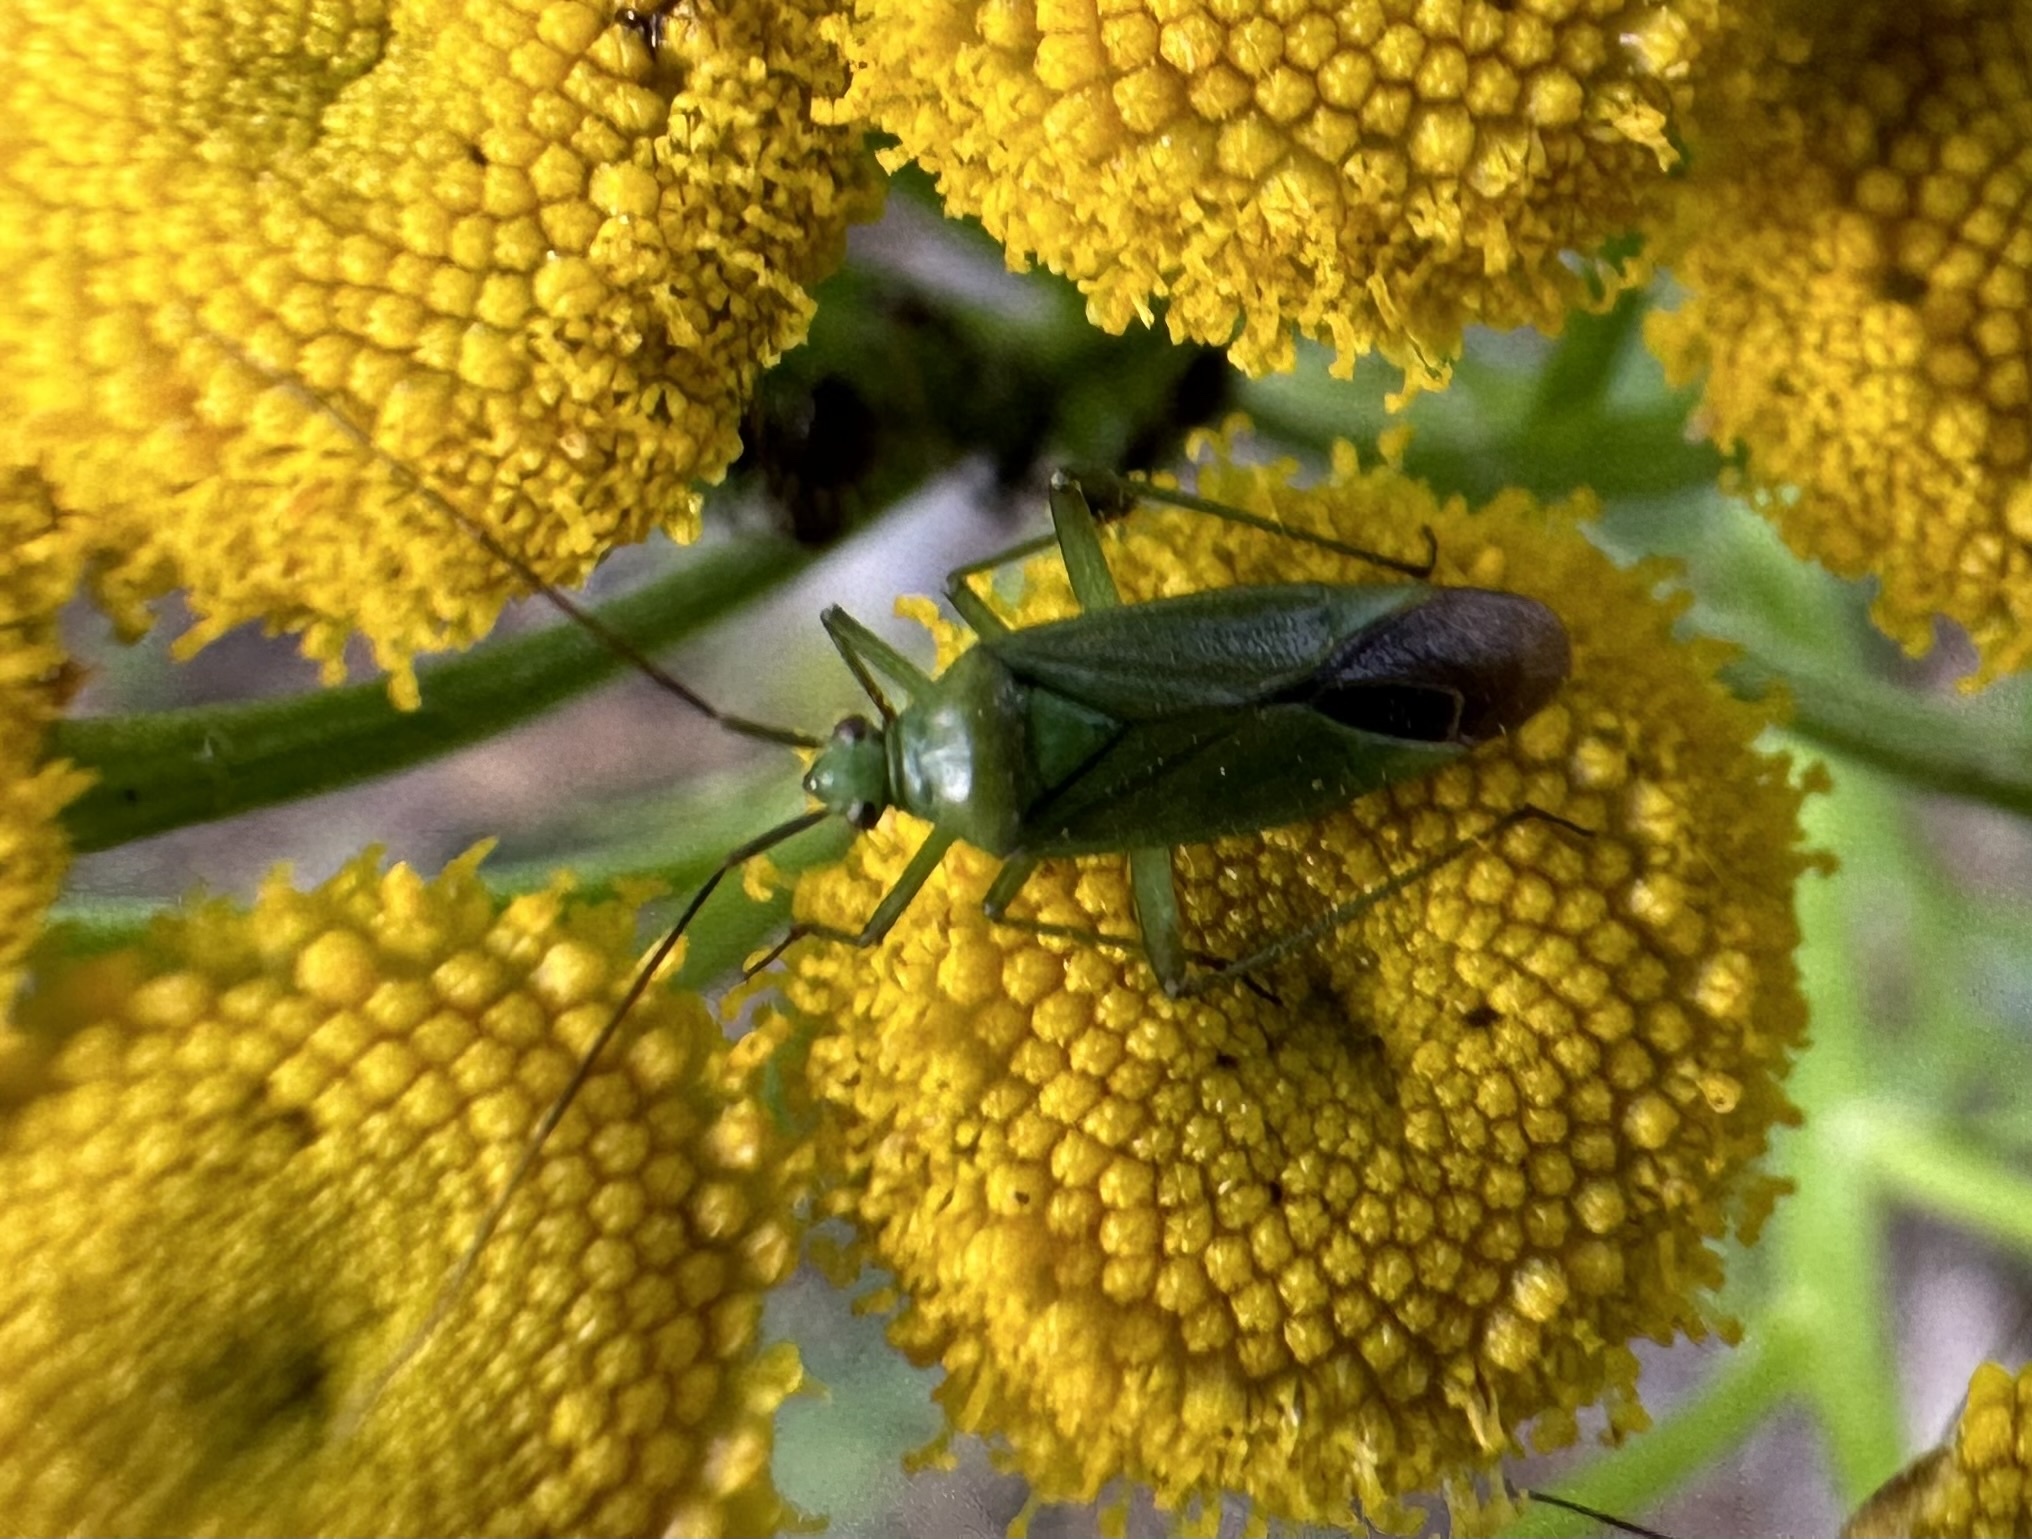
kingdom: Animalia
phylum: Arthropoda
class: Insecta
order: Hemiptera
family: Miridae
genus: Calocoris
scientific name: Calocoris affinis
